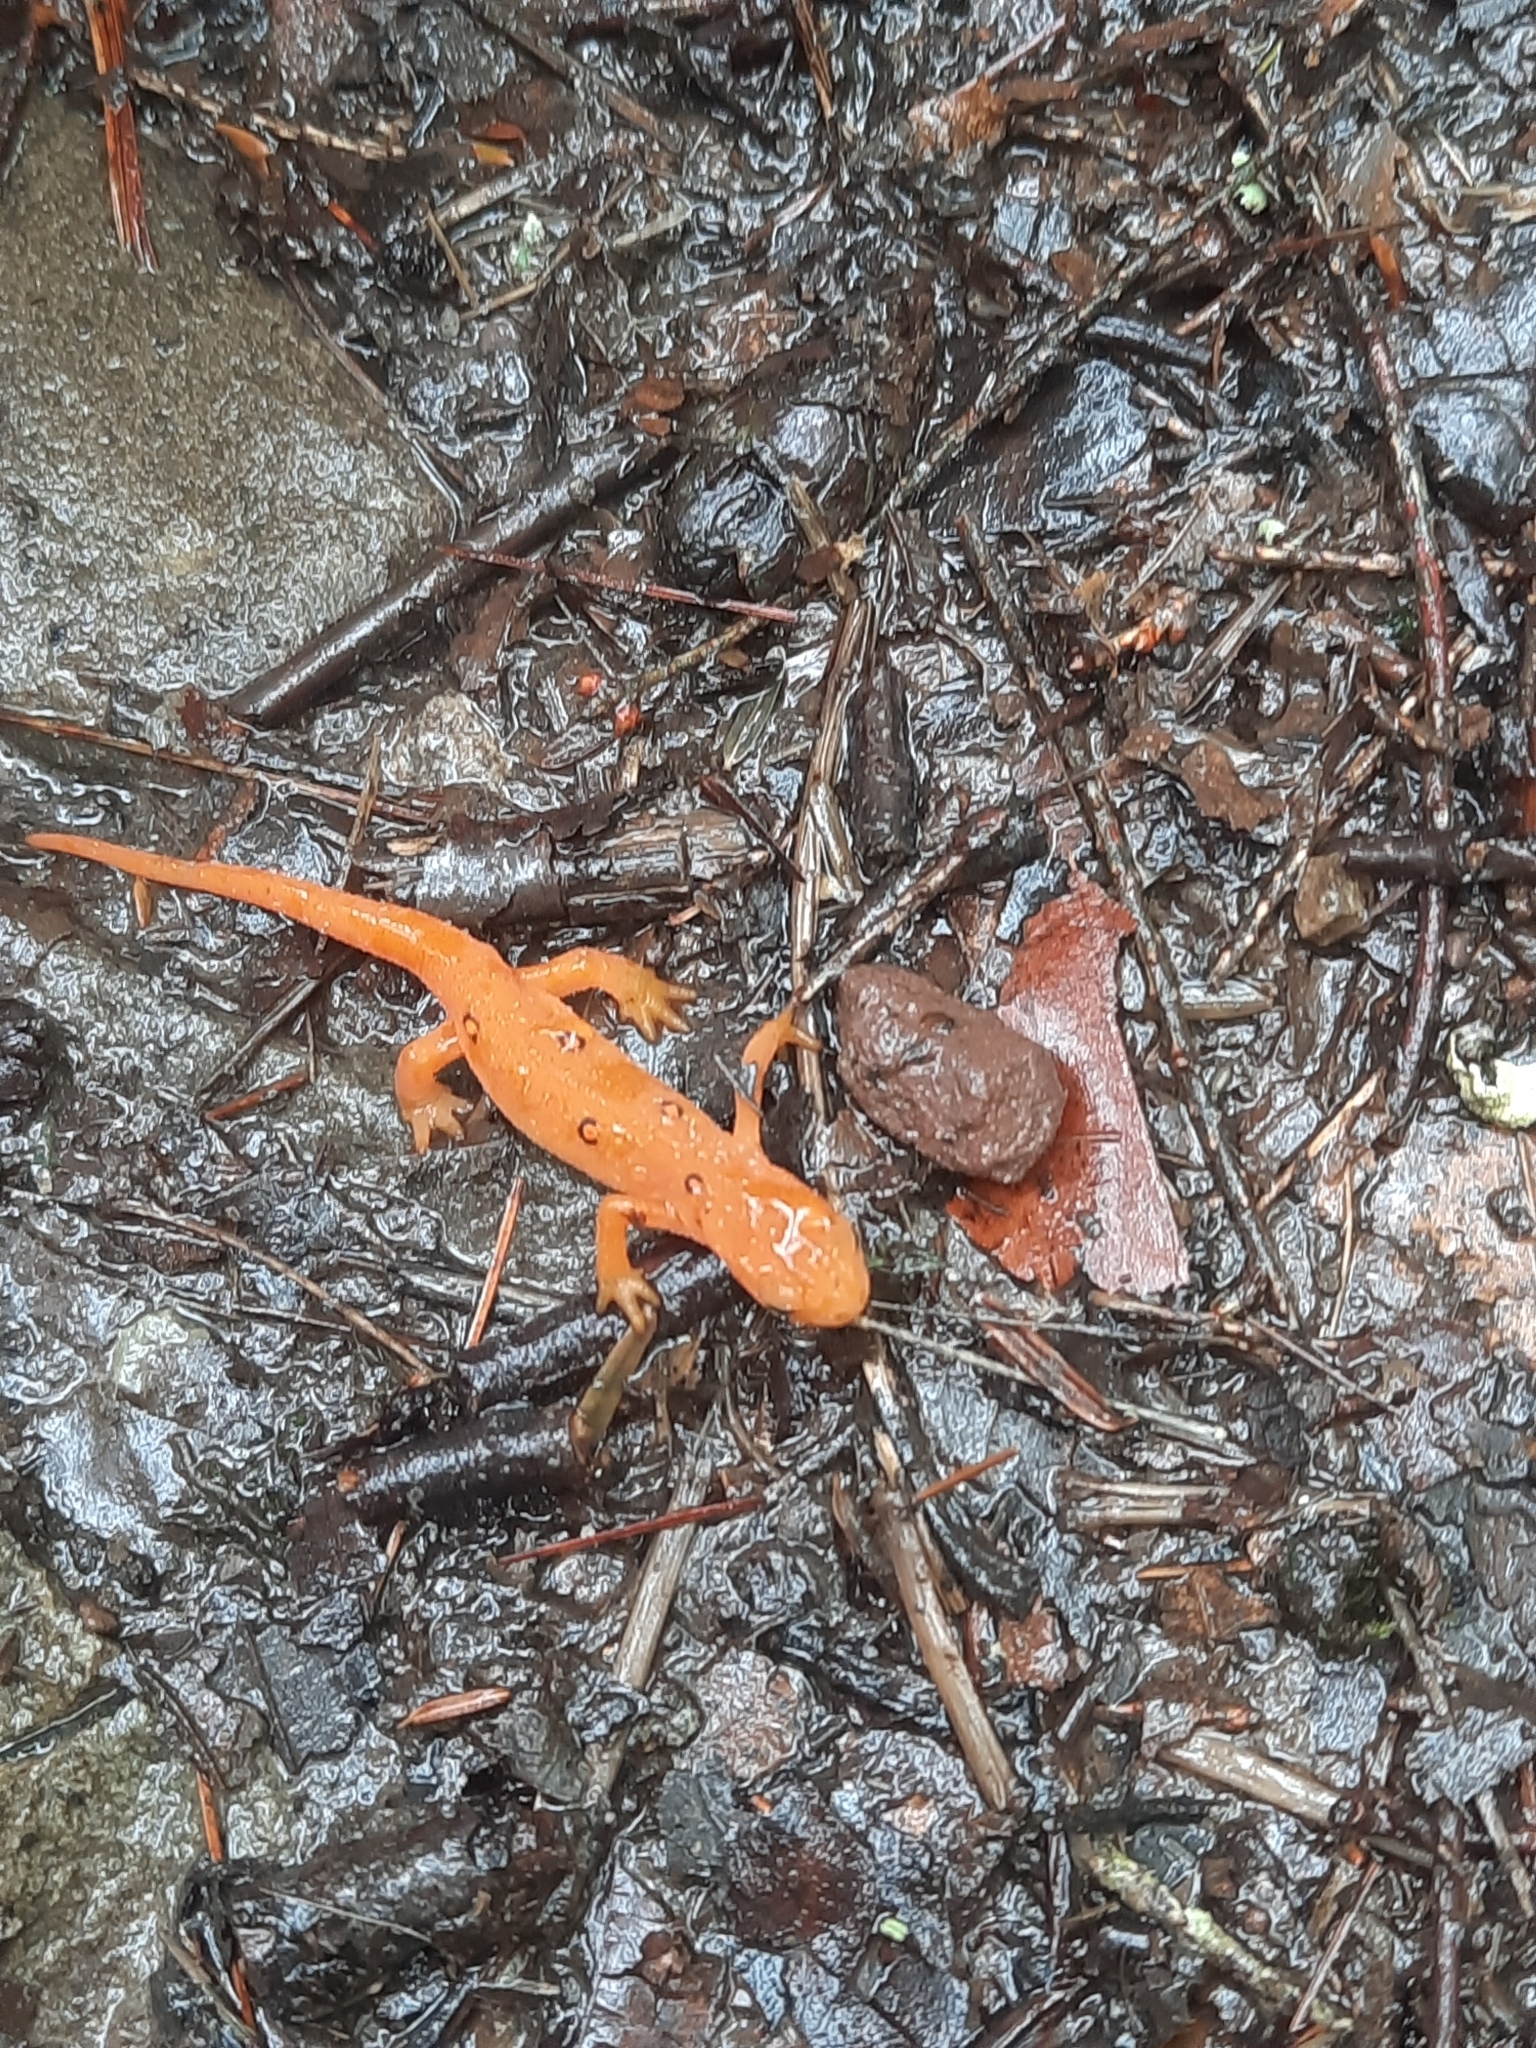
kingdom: Animalia
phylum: Chordata
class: Amphibia
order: Caudata
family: Salamandridae
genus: Notophthalmus
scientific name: Notophthalmus viridescens
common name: Eastern newt
